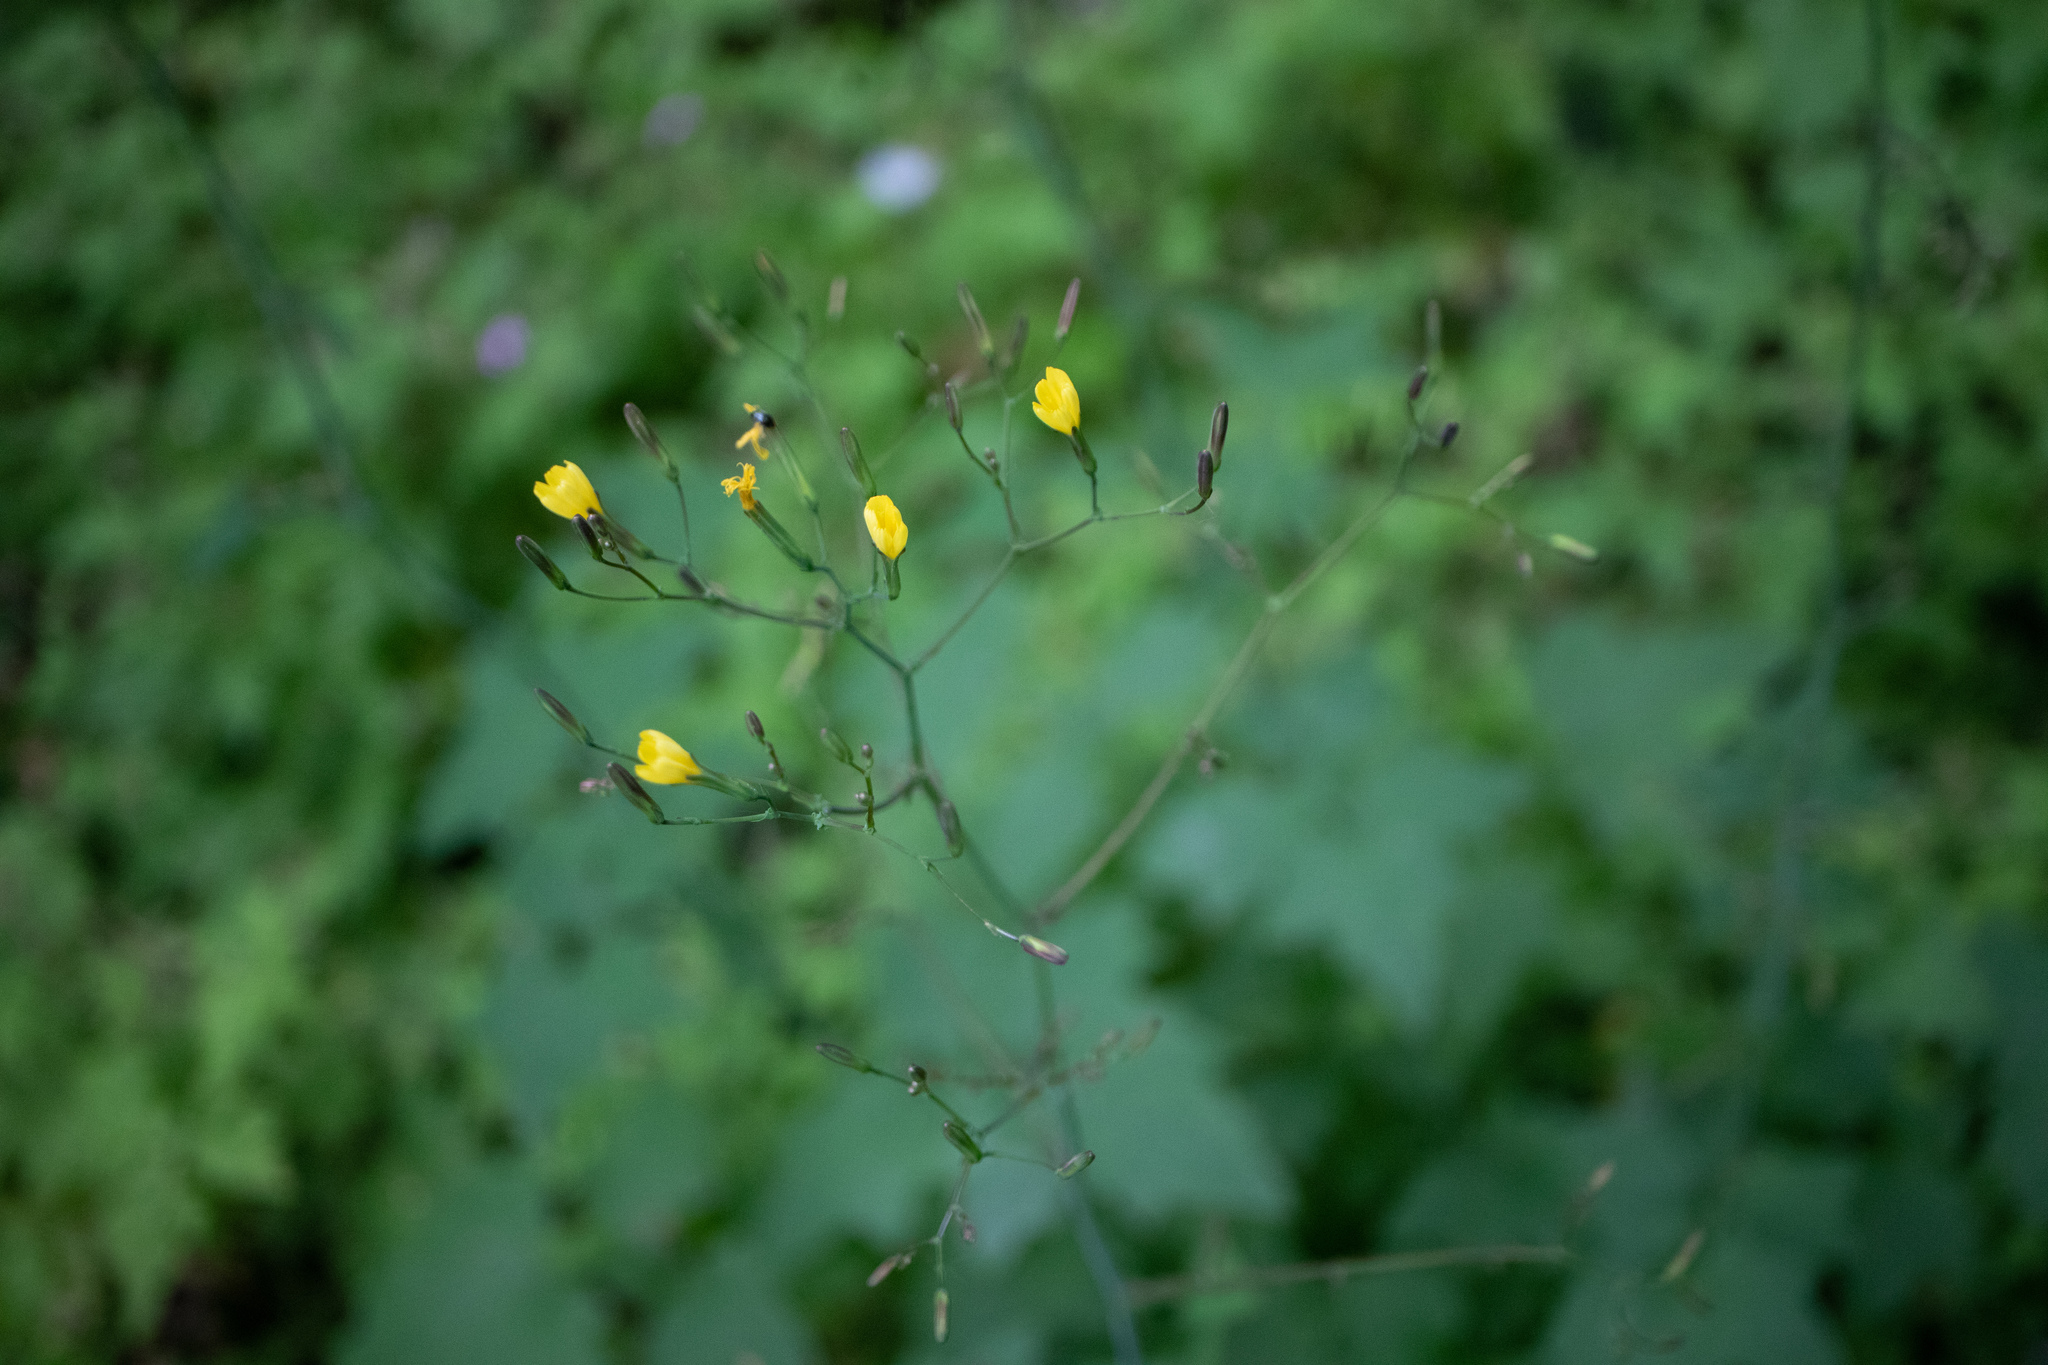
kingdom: Plantae
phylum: Tracheophyta
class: Magnoliopsida
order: Asterales
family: Asteraceae
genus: Mycelis
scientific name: Mycelis muralis
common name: Wall lettuce
